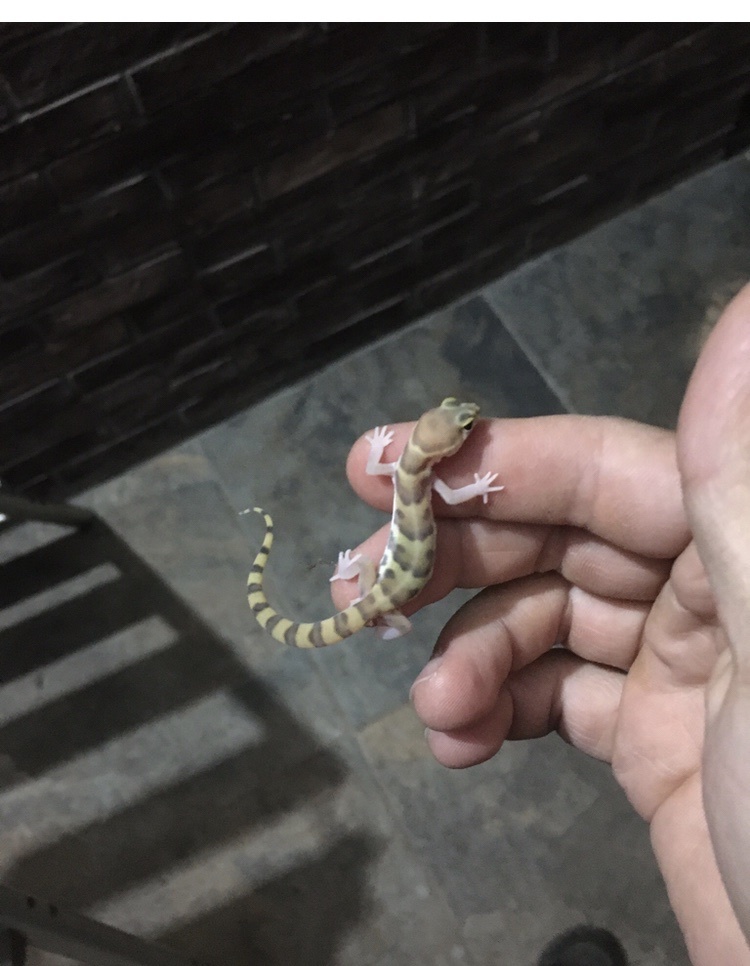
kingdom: Animalia
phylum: Chordata
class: Squamata
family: Eublepharidae
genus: Coleonyx
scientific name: Coleonyx variegatus
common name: Western banded gecko
